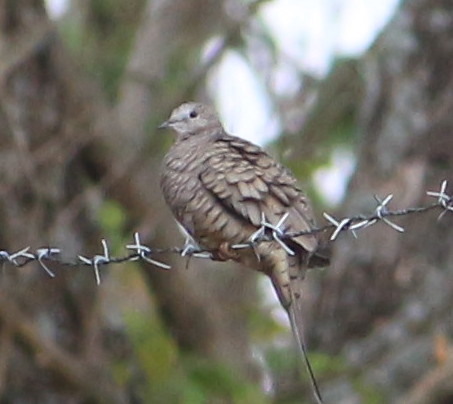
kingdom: Animalia
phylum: Chordata
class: Aves
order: Columbiformes
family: Columbidae
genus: Columbina
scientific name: Columbina inca
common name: Inca dove
